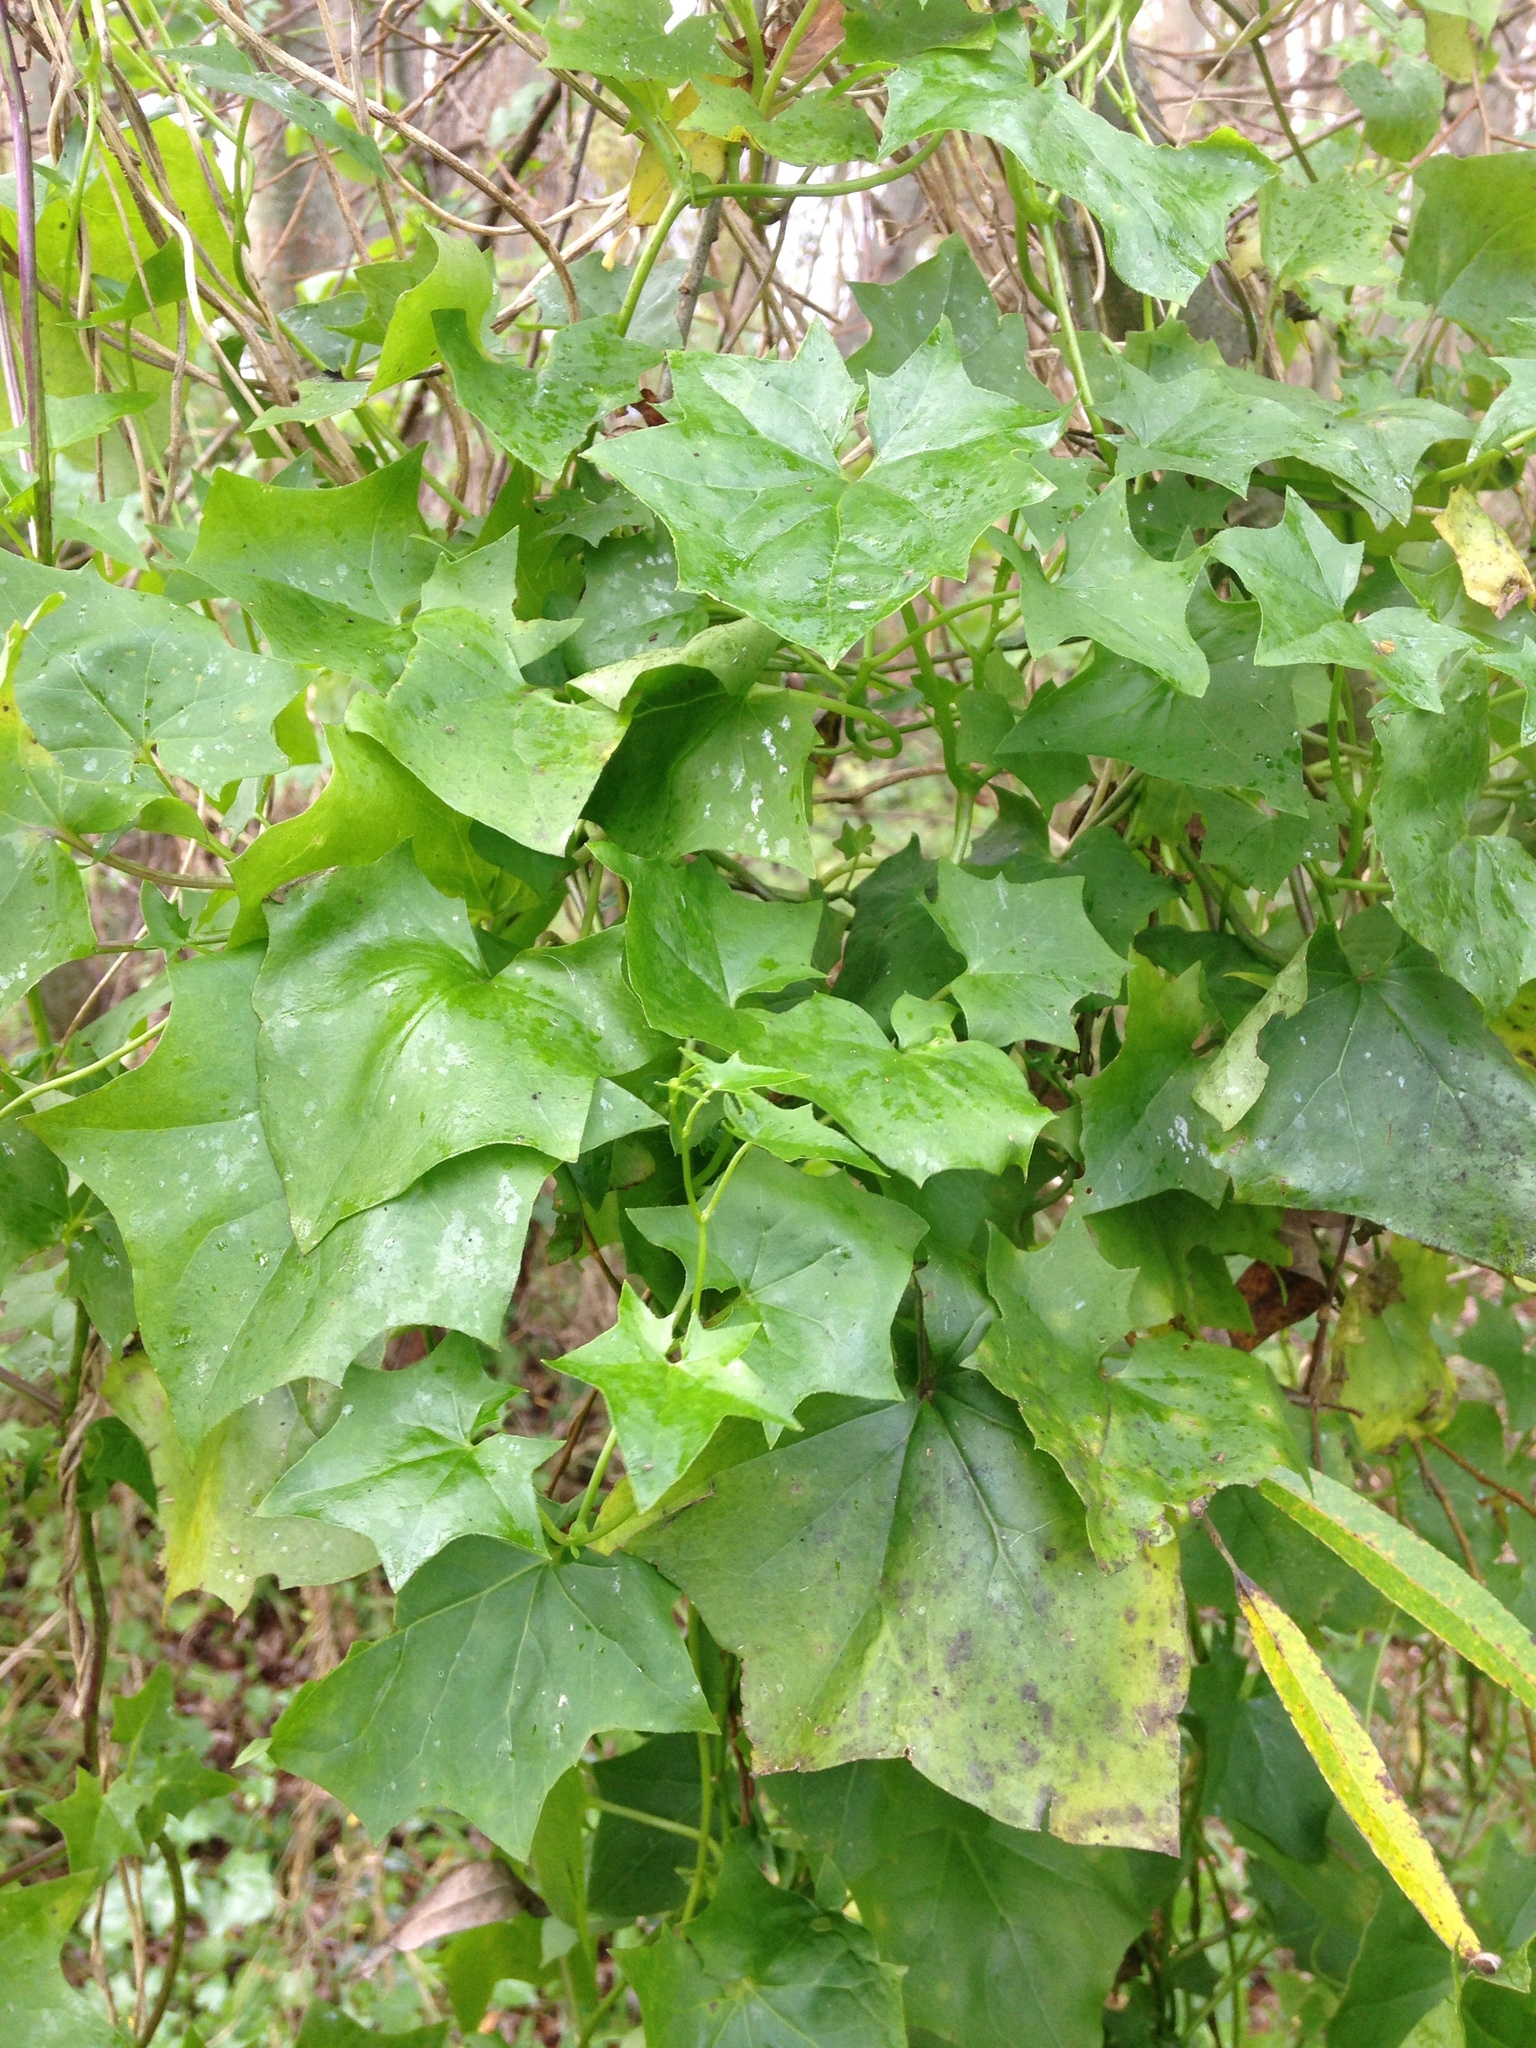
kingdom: Plantae
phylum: Tracheophyta
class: Magnoliopsida
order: Asterales
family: Asteraceae
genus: Delairea
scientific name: Delairea odorata
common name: Cape-ivy
